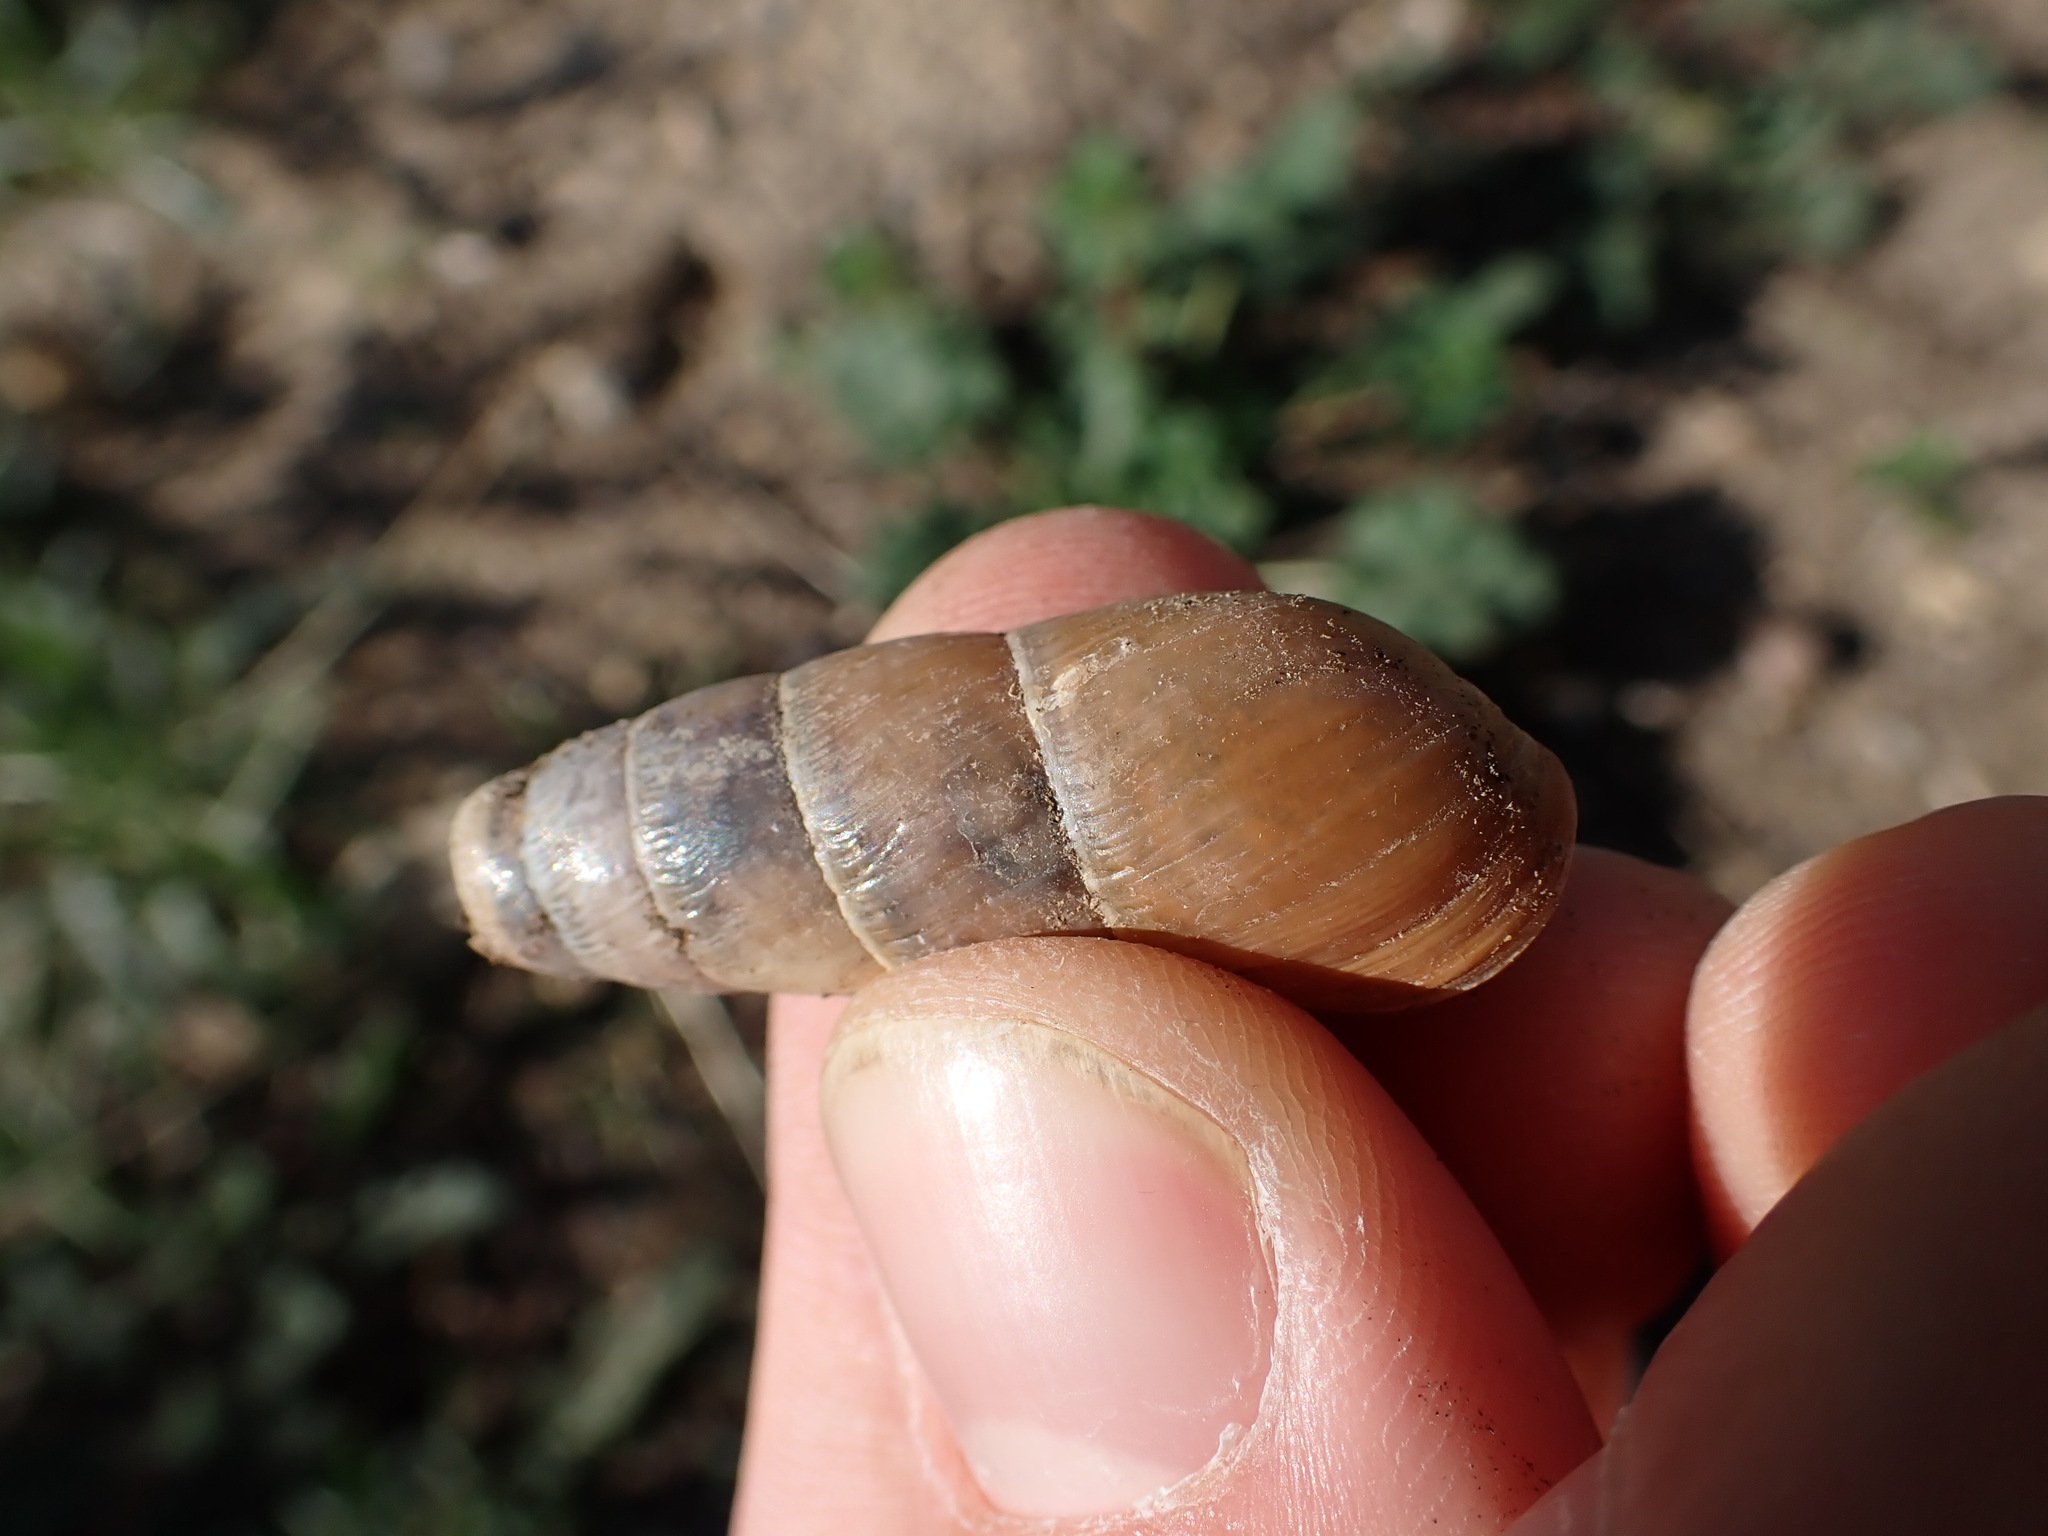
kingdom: Animalia
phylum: Mollusca
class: Gastropoda
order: Stylommatophora
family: Achatinidae
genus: Rumina
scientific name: Rumina decollata
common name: Decollate snail
